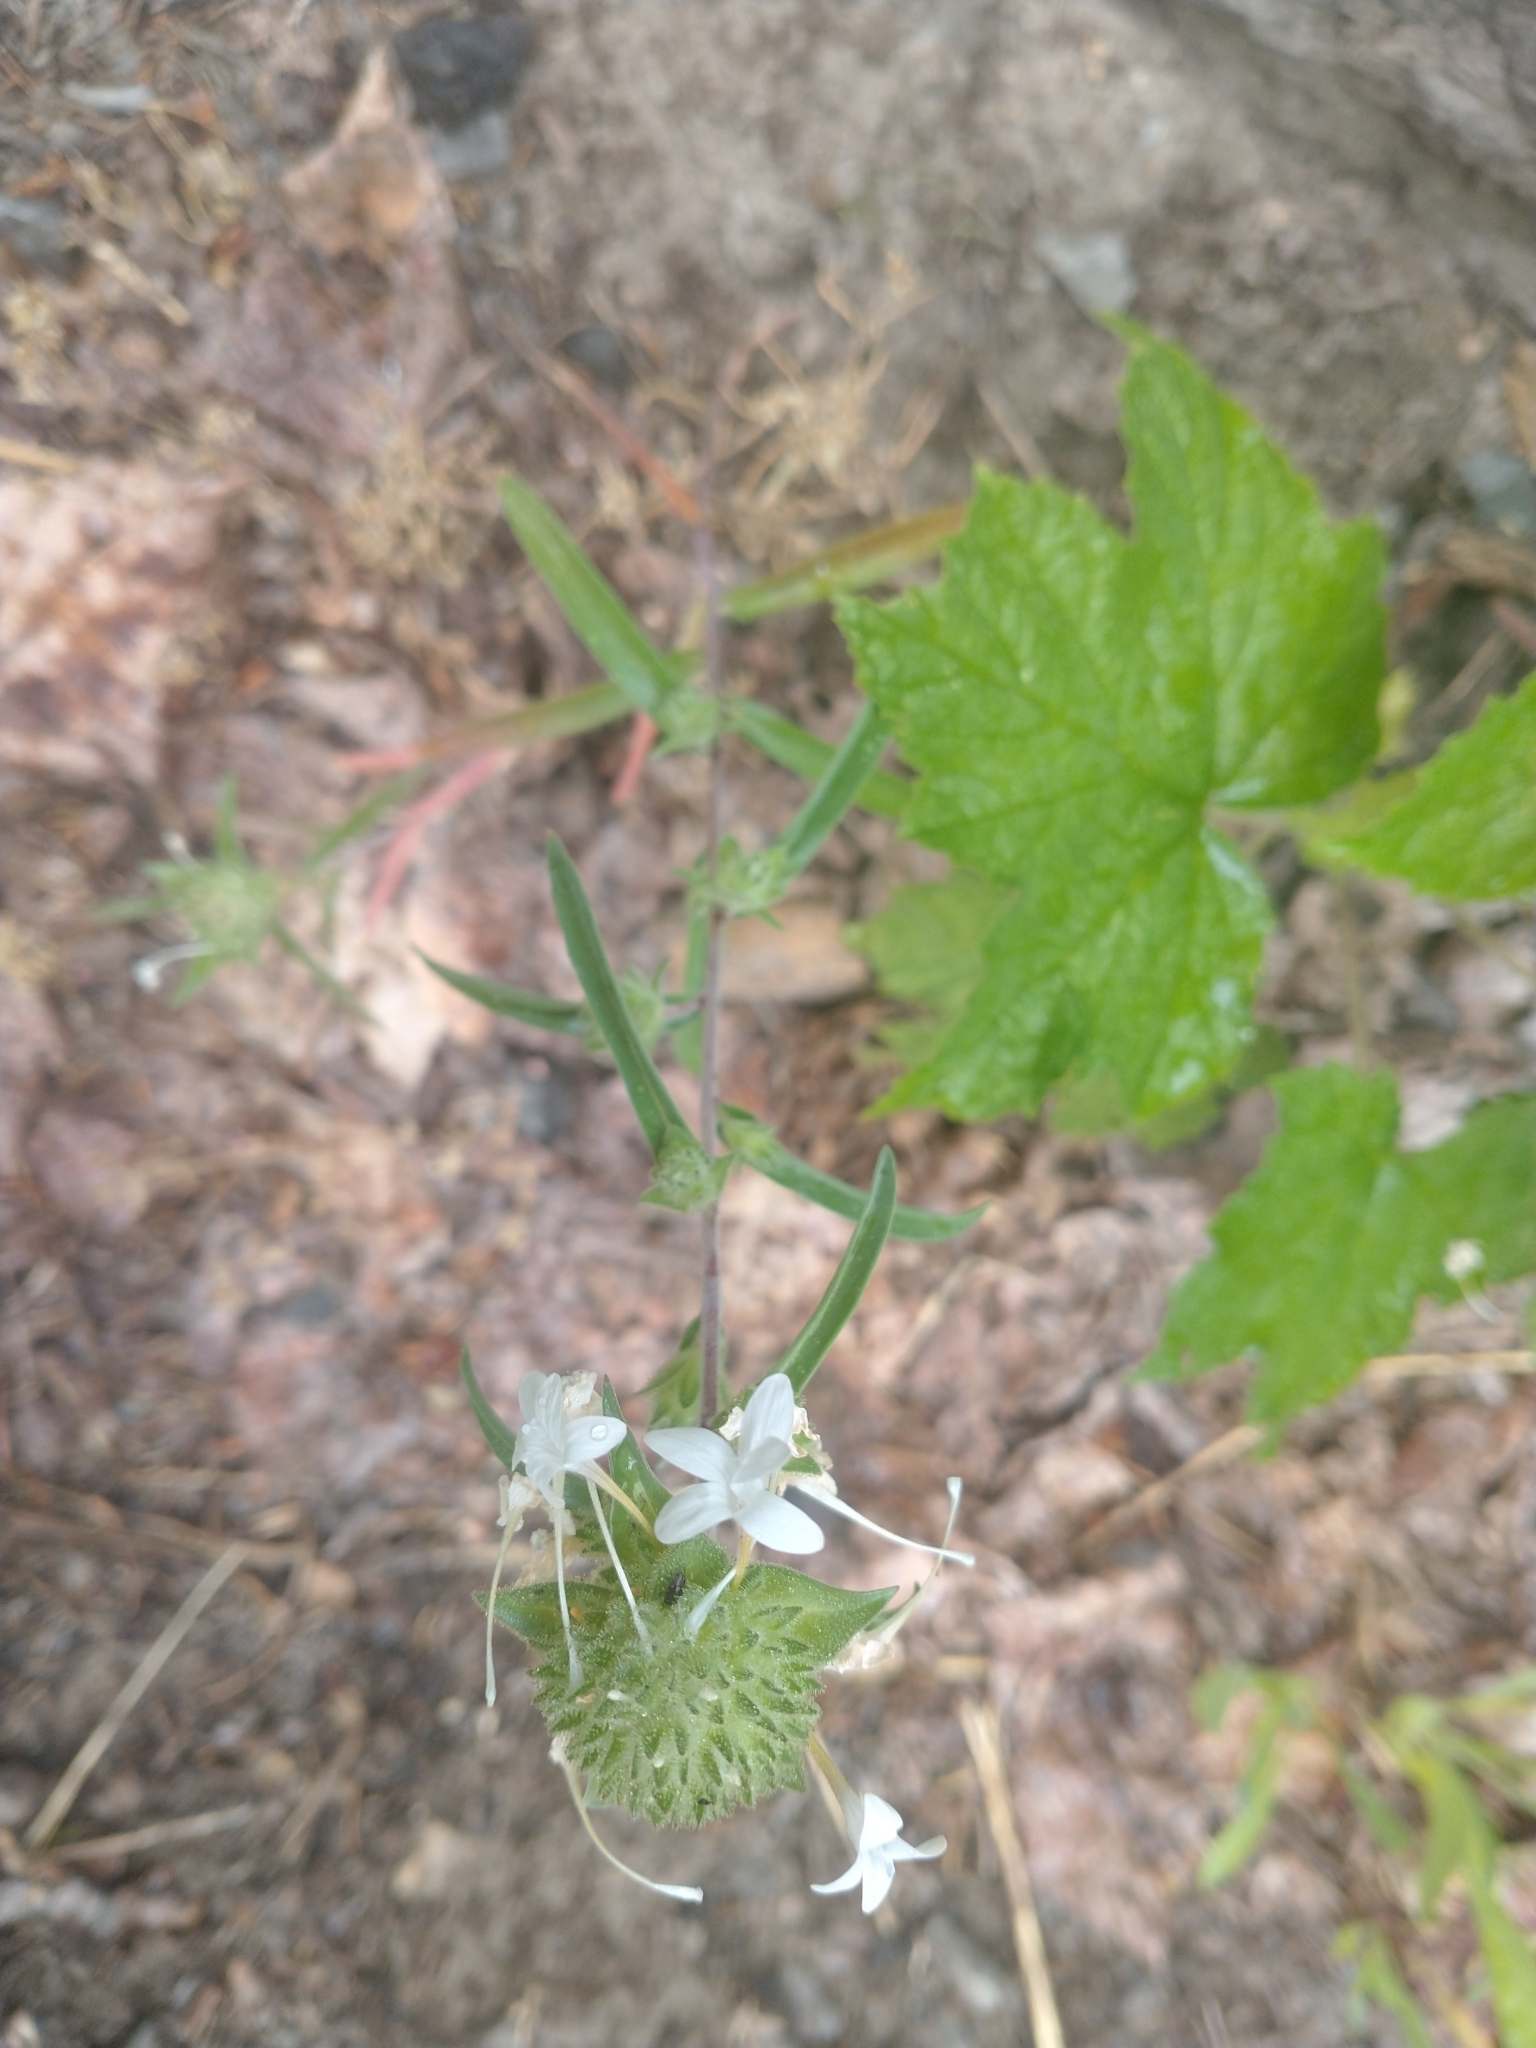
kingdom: Plantae
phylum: Tracheophyta
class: Magnoliopsida
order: Ericales
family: Polemoniaceae
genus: Collomia
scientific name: Collomia grandiflora
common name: California strawflower
